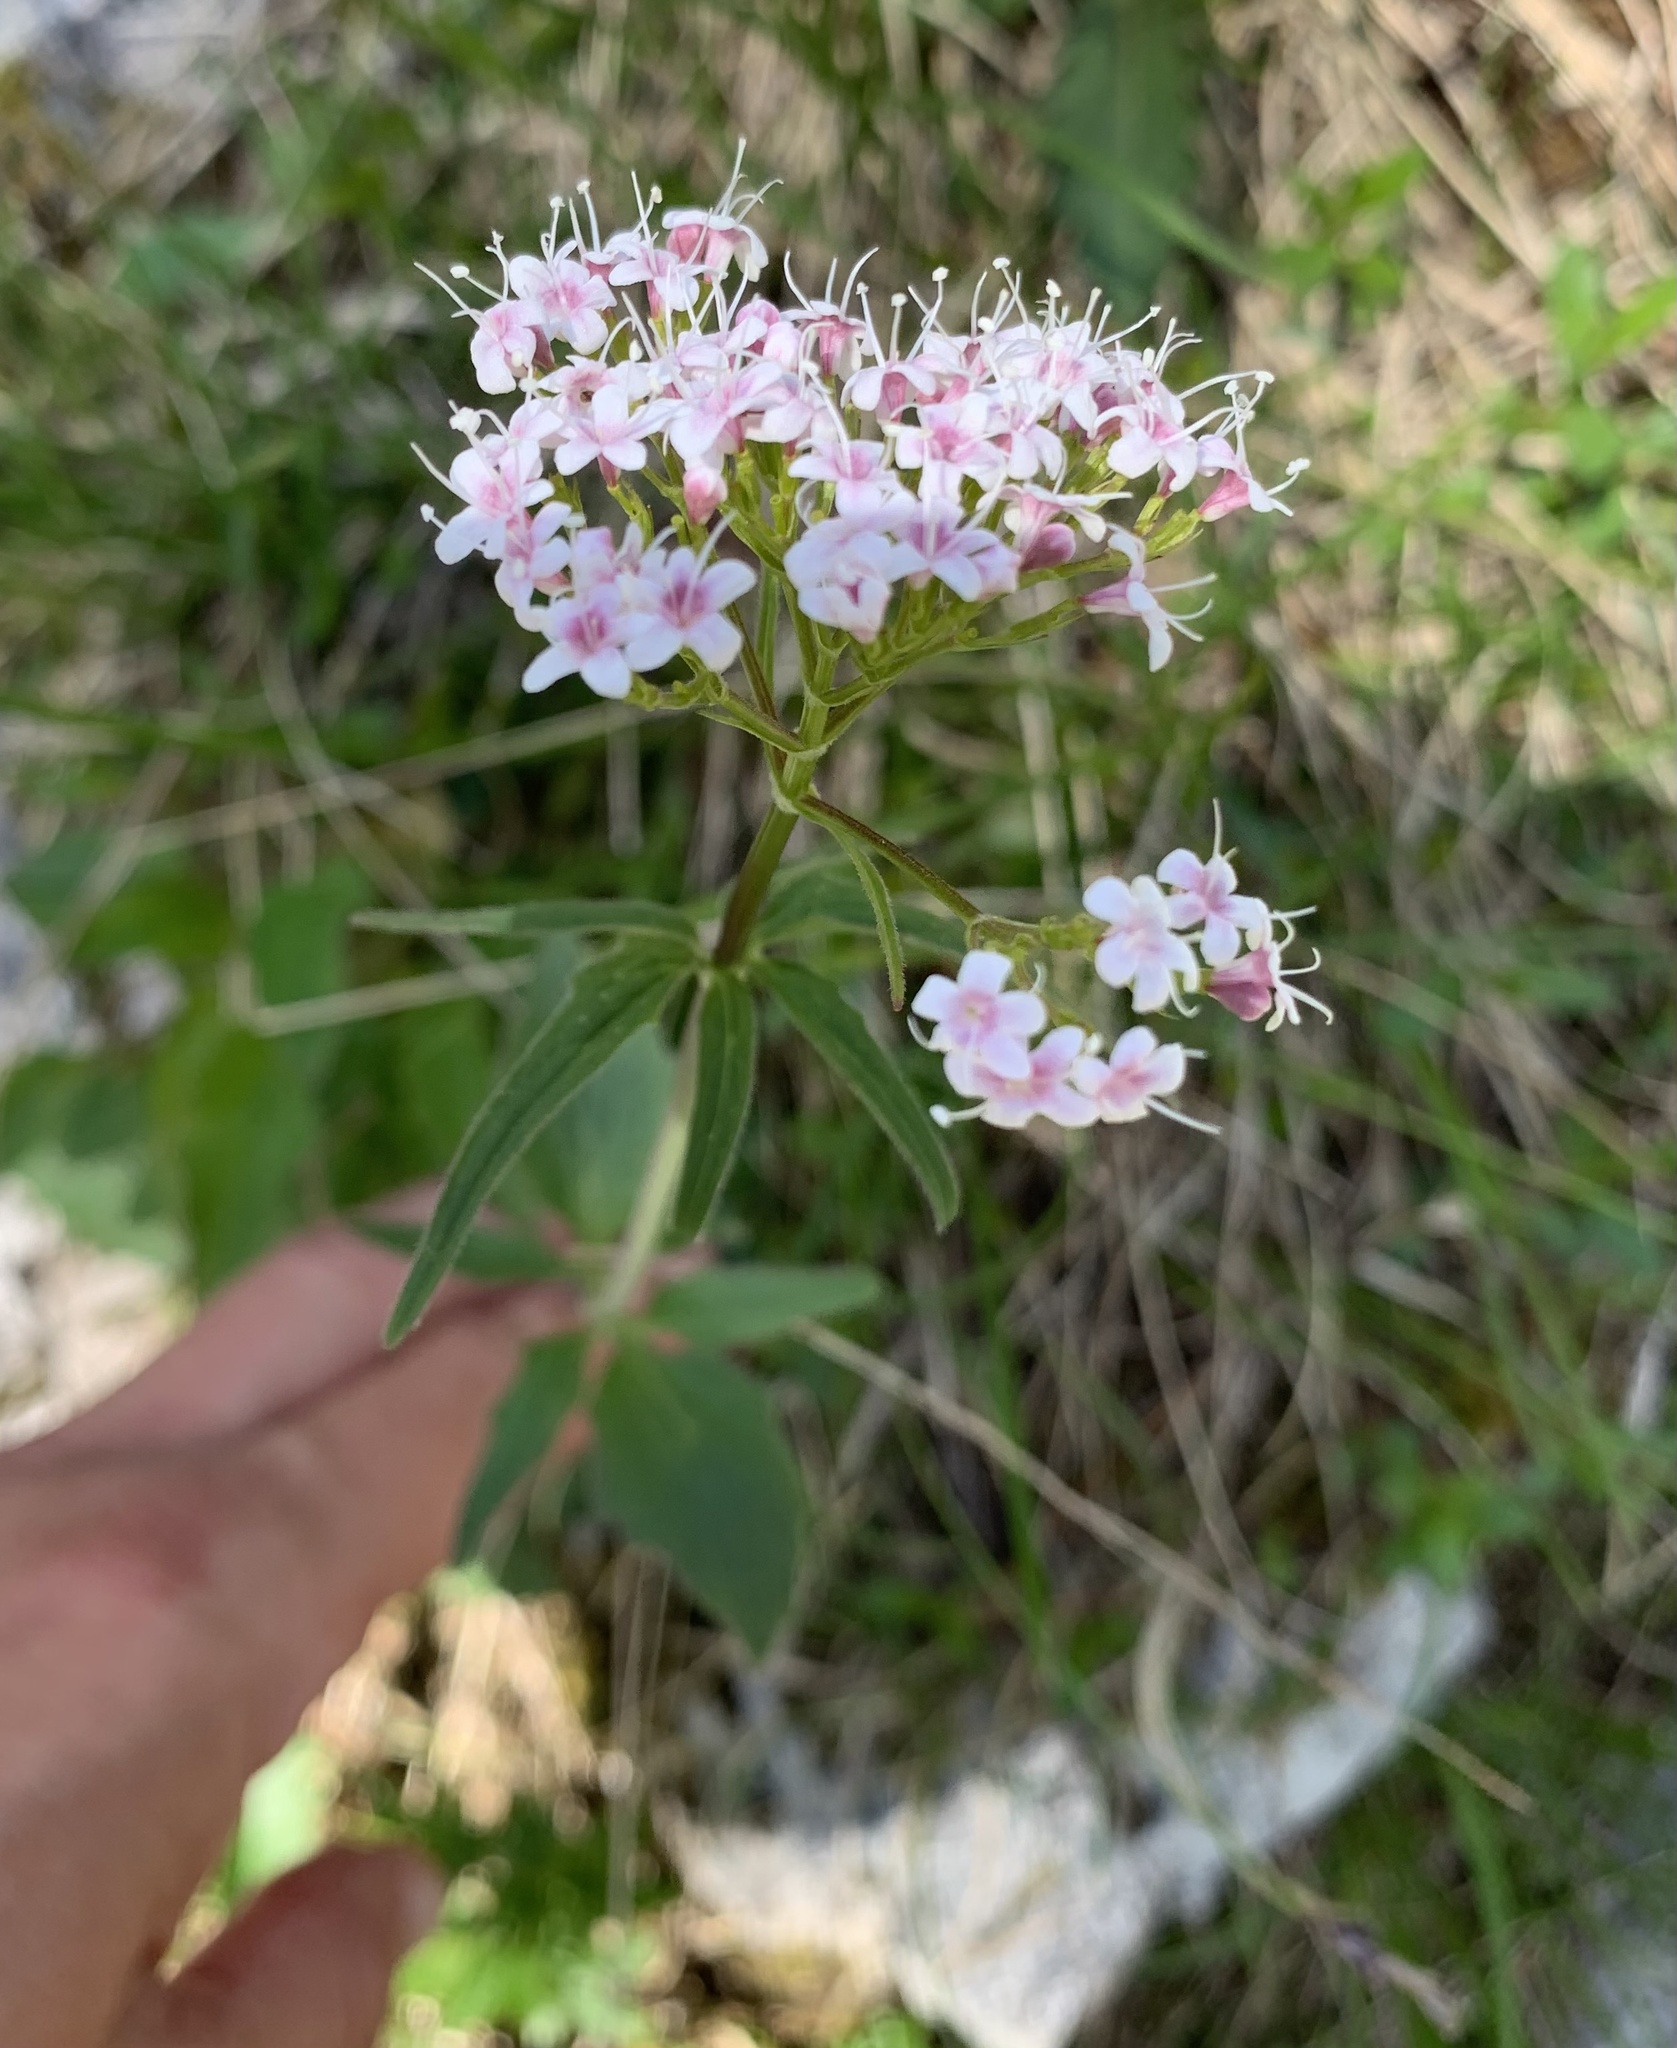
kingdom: Plantae
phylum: Tracheophyta
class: Magnoliopsida
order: Dipsacales
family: Caprifoliaceae
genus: Valeriana
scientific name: Valeriana tripteris
